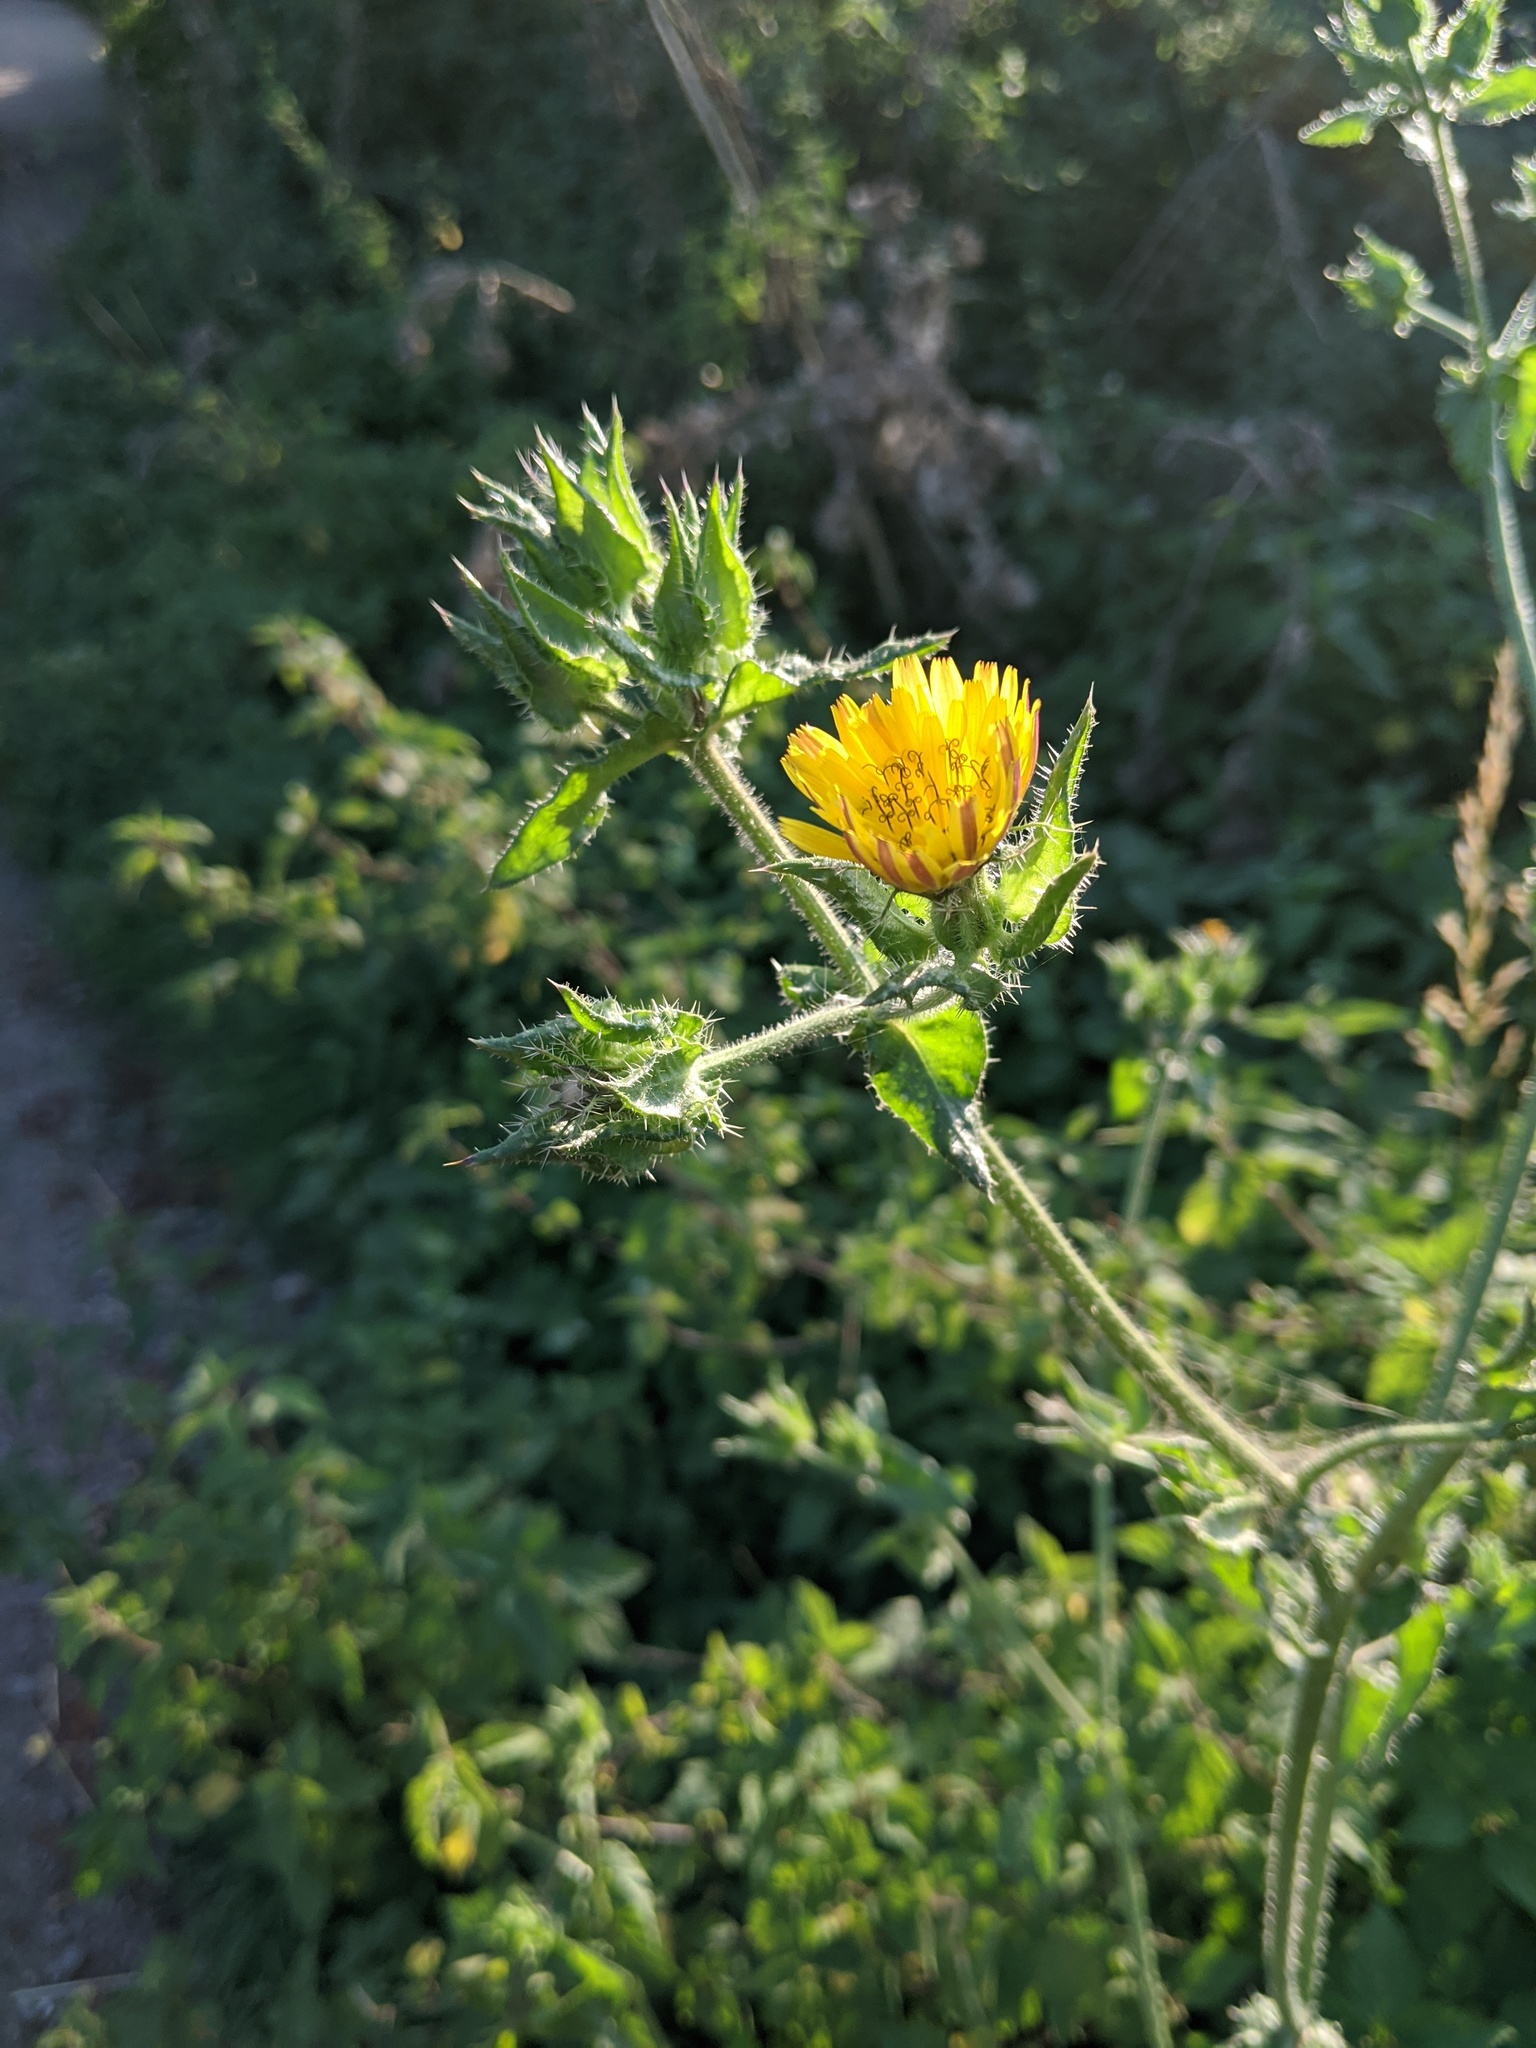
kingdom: Plantae
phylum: Tracheophyta
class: Magnoliopsida
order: Asterales
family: Asteraceae
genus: Helminthotheca
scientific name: Helminthotheca echioides
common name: Ox-tongue
